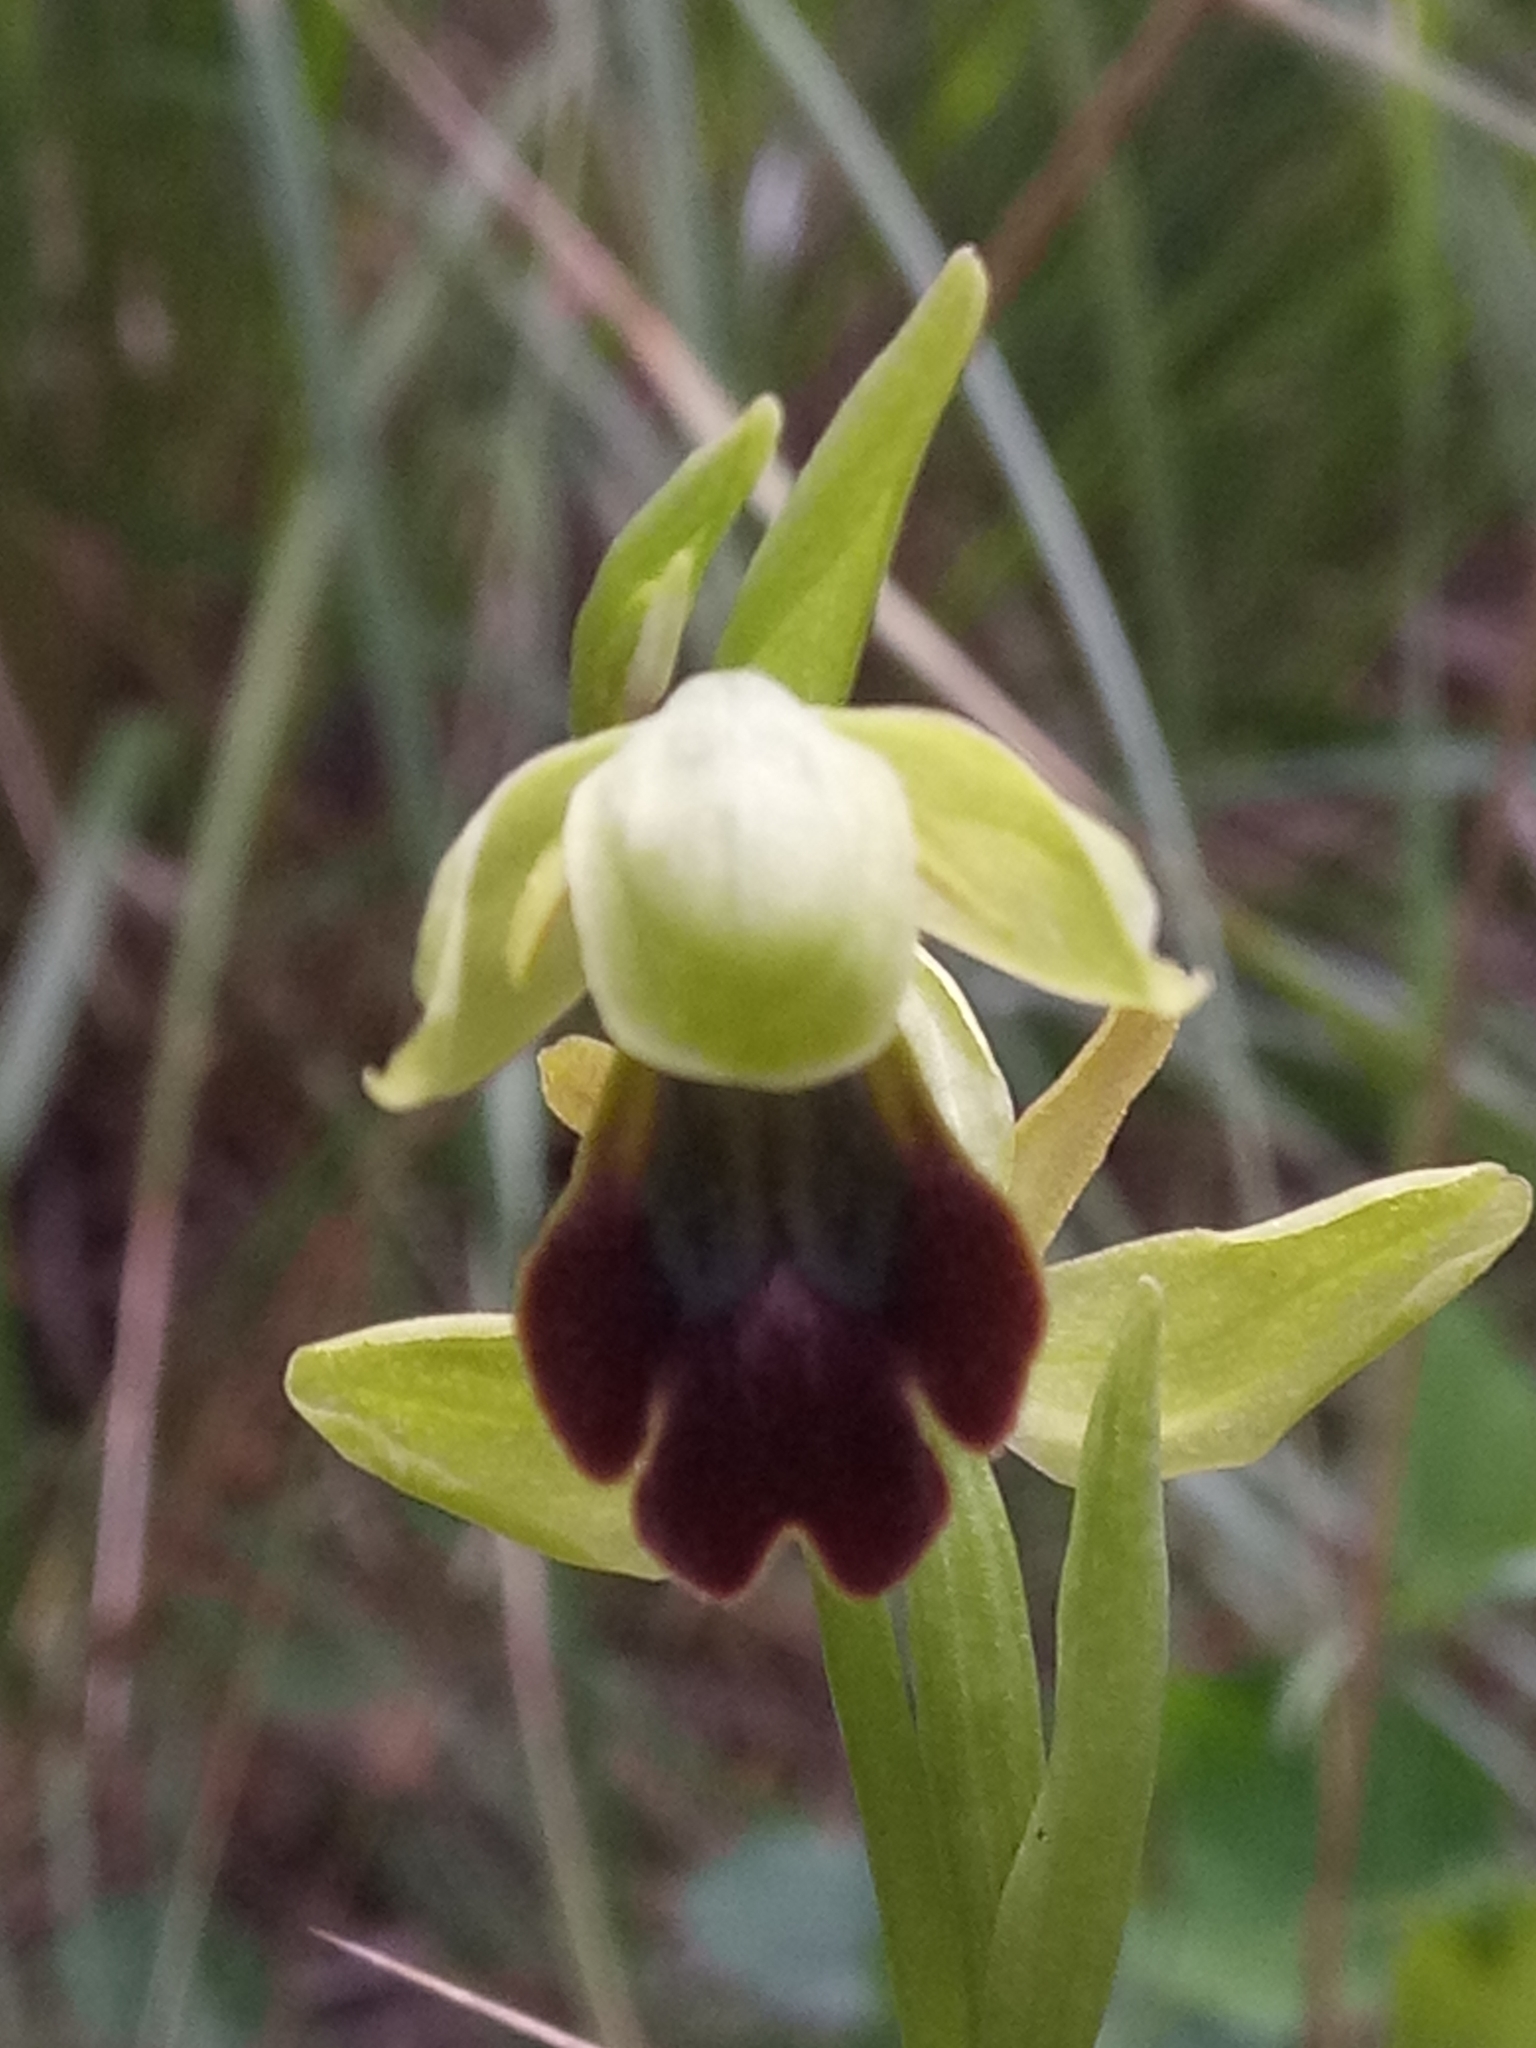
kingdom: Plantae
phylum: Tracheophyta
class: Liliopsida
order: Asparagales
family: Orchidaceae
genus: Ophrys
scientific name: Ophrys fusca
